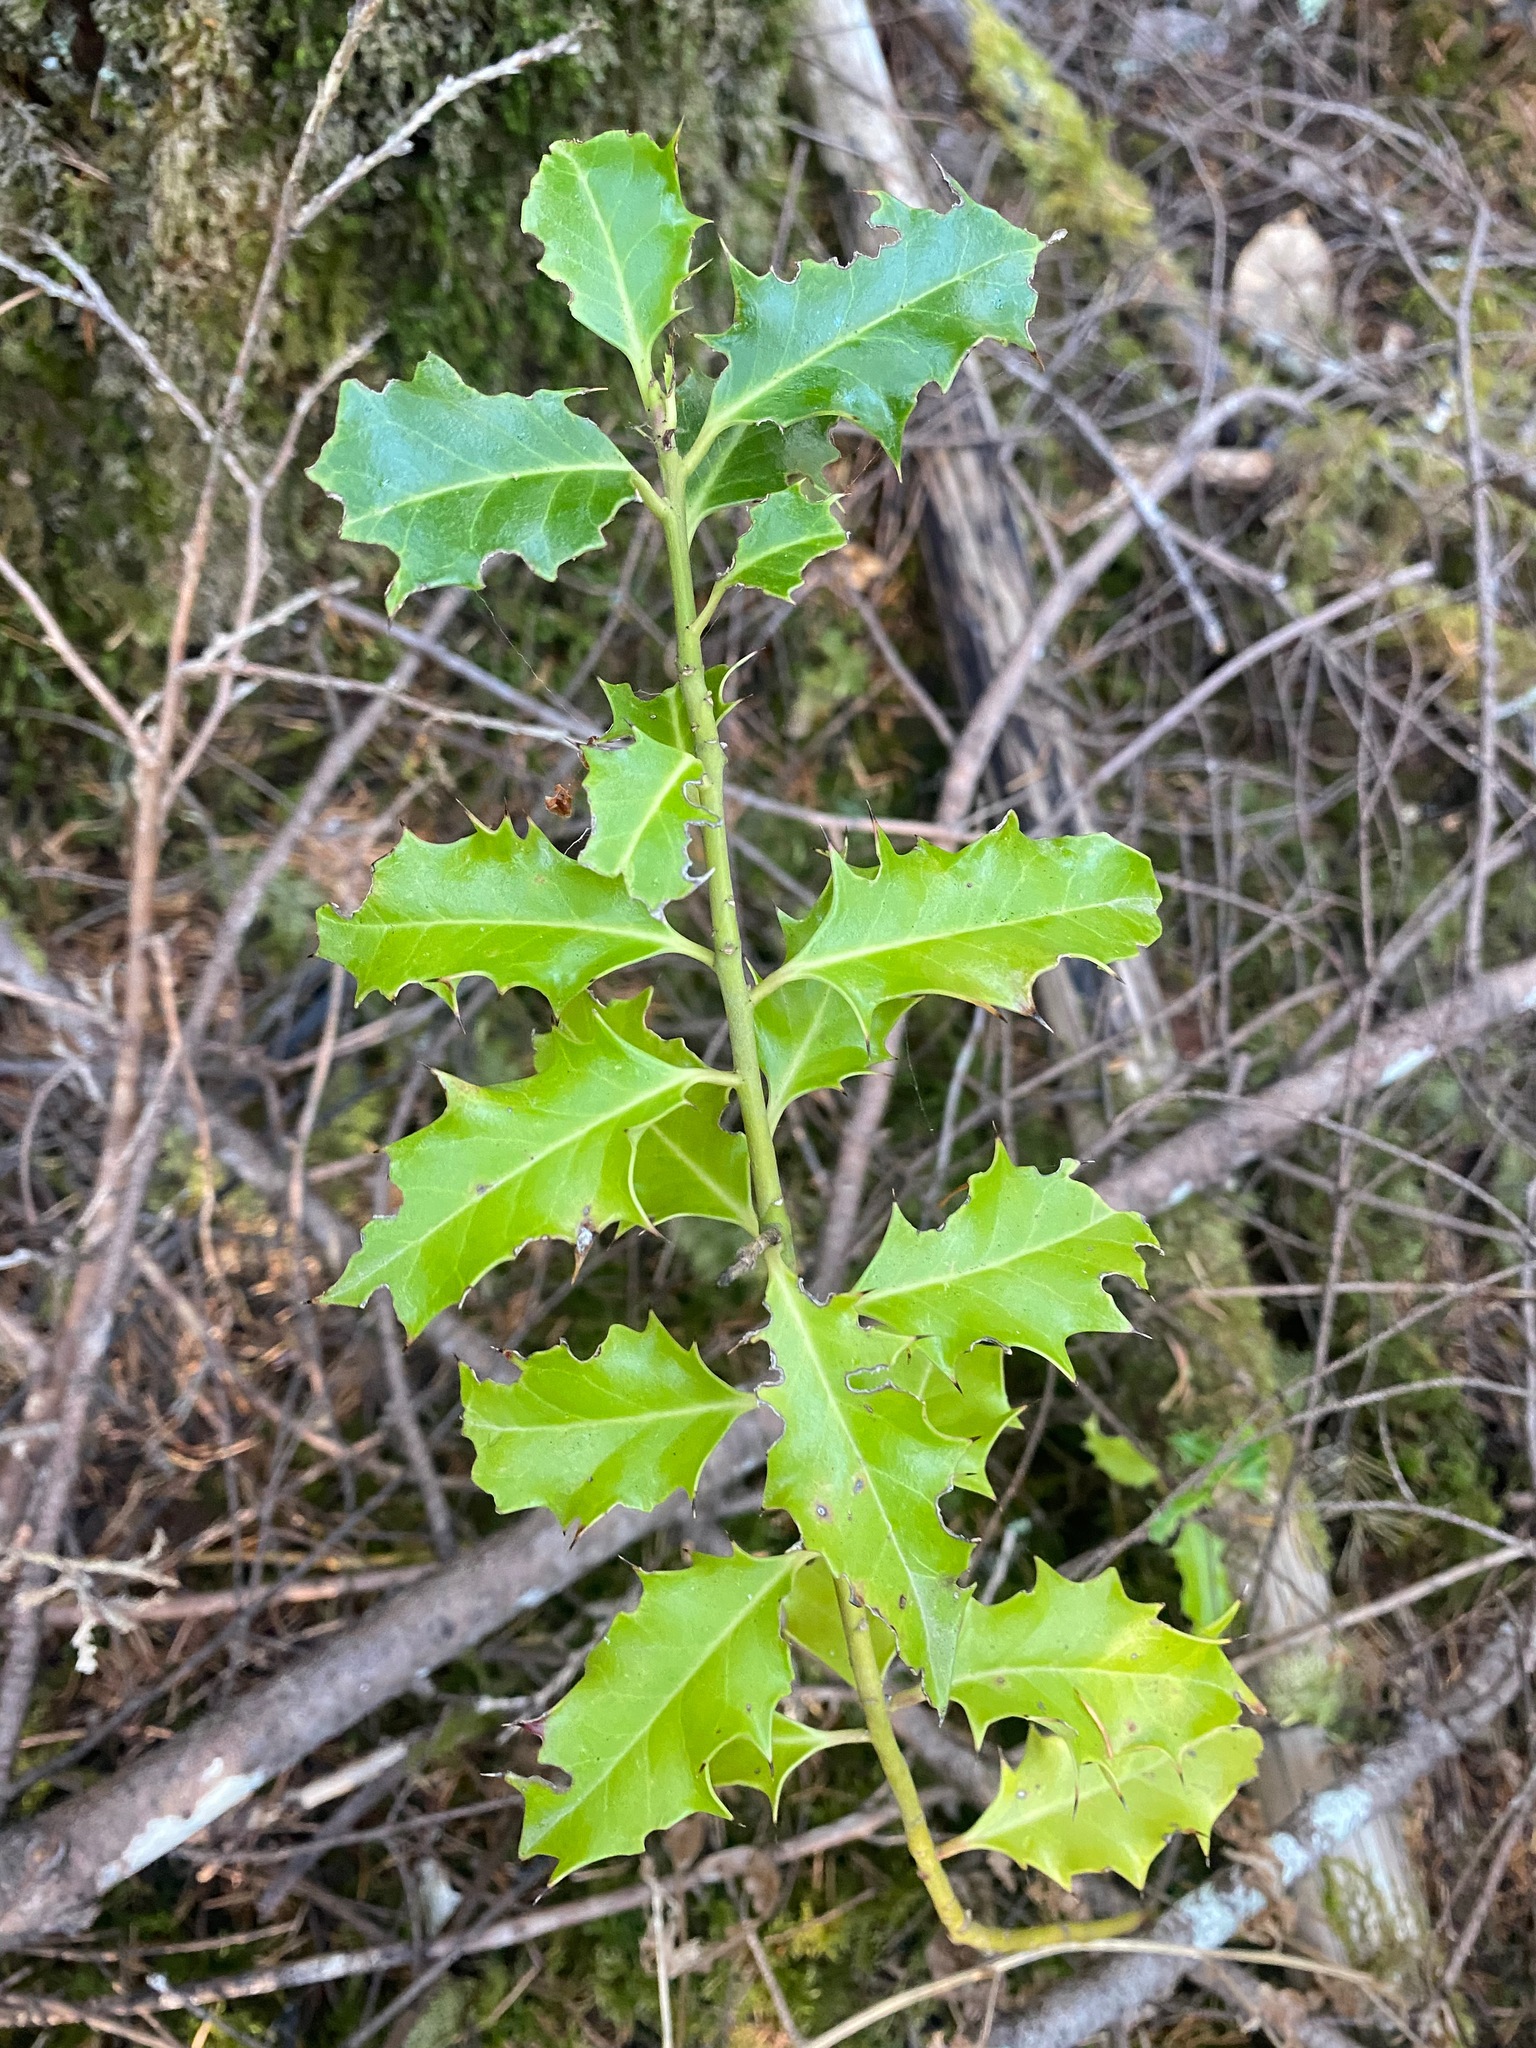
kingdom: Plantae
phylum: Tracheophyta
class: Magnoliopsida
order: Aquifoliales
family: Aquifoliaceae
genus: Ilex
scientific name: Ilex aquifolium
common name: English holly
